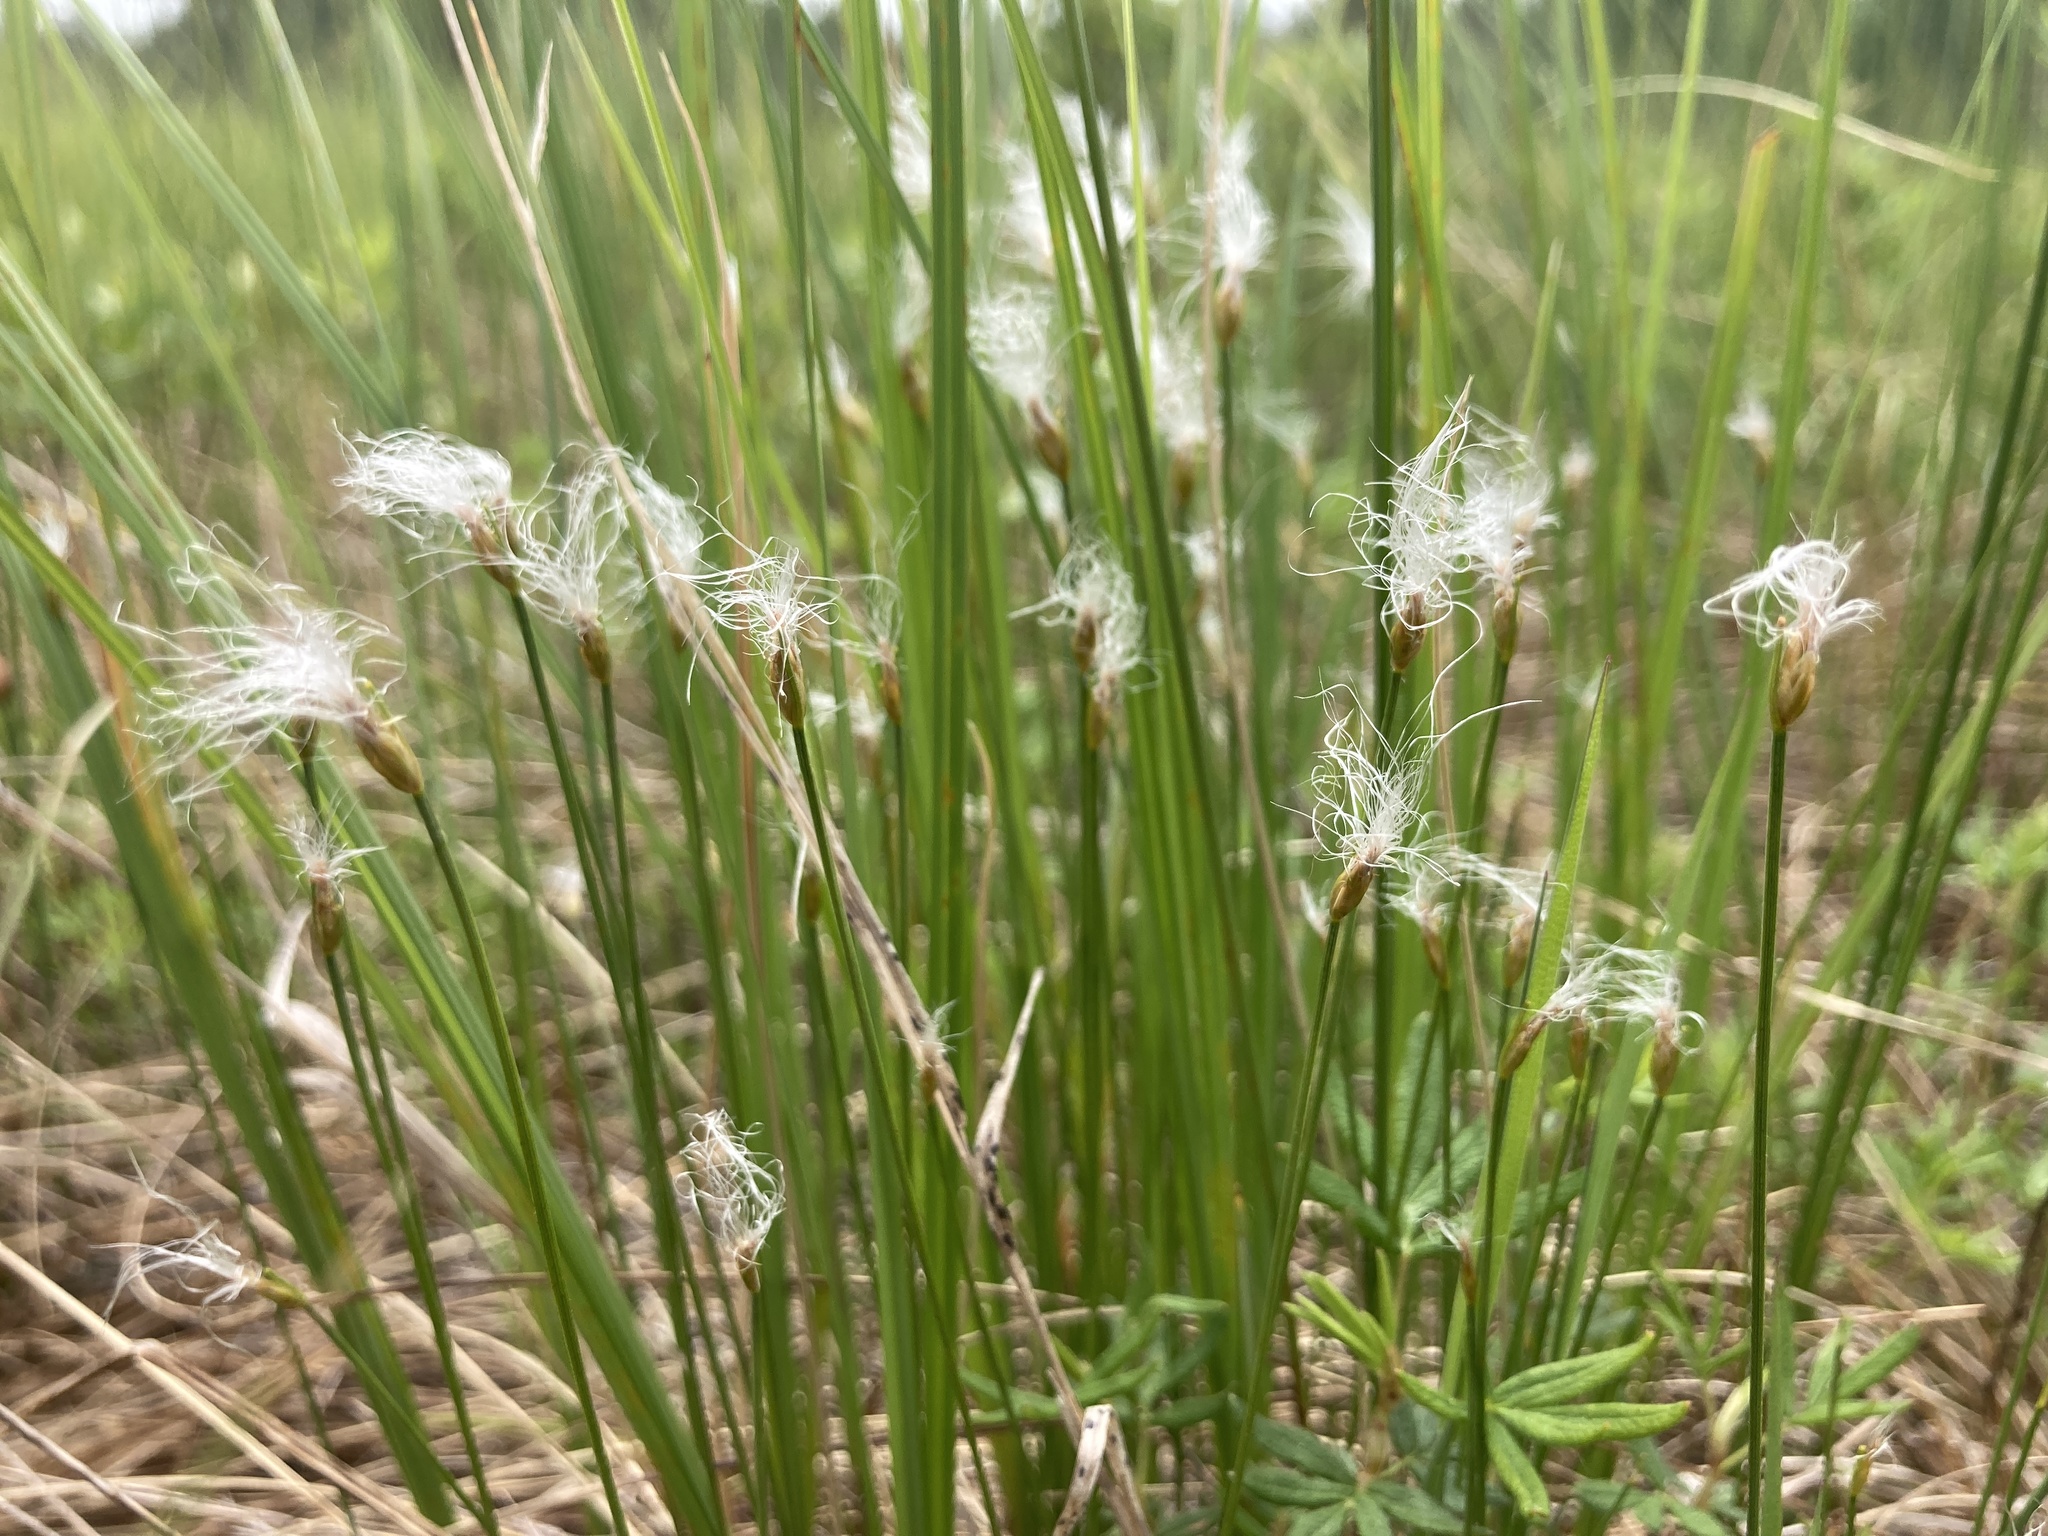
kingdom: Plantae
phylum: Tracheophyta
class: Liliopsida
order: Poales
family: Cyperaceae
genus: Trichophorum
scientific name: Trichophorum alpinum
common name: Alpine bulrush
